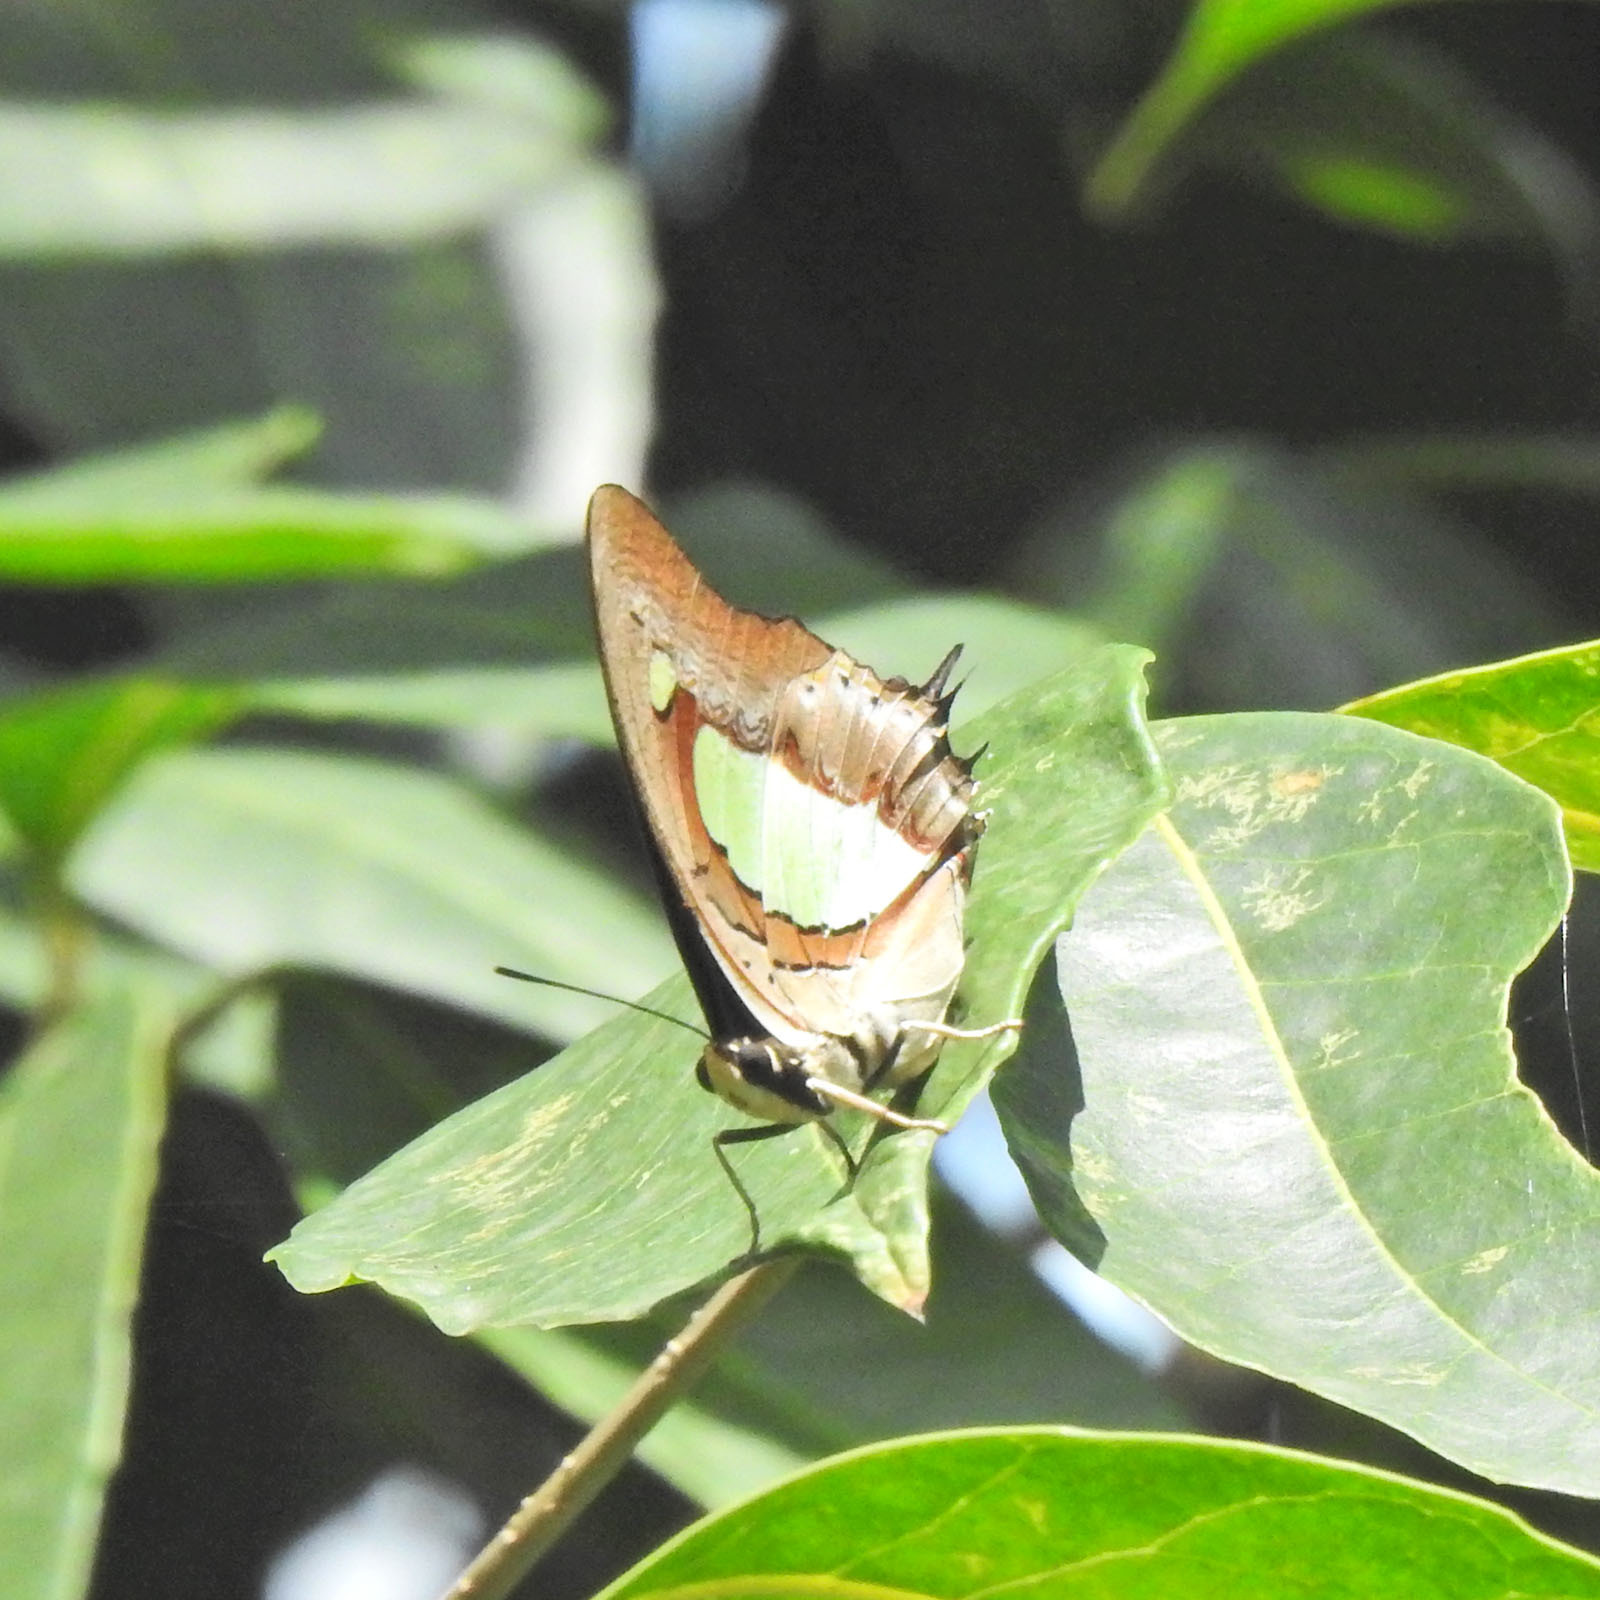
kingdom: Animalia
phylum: Arthropoda
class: Insecta
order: Lepidoptera
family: Nymphalidae
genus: Polyura
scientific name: Polyura
